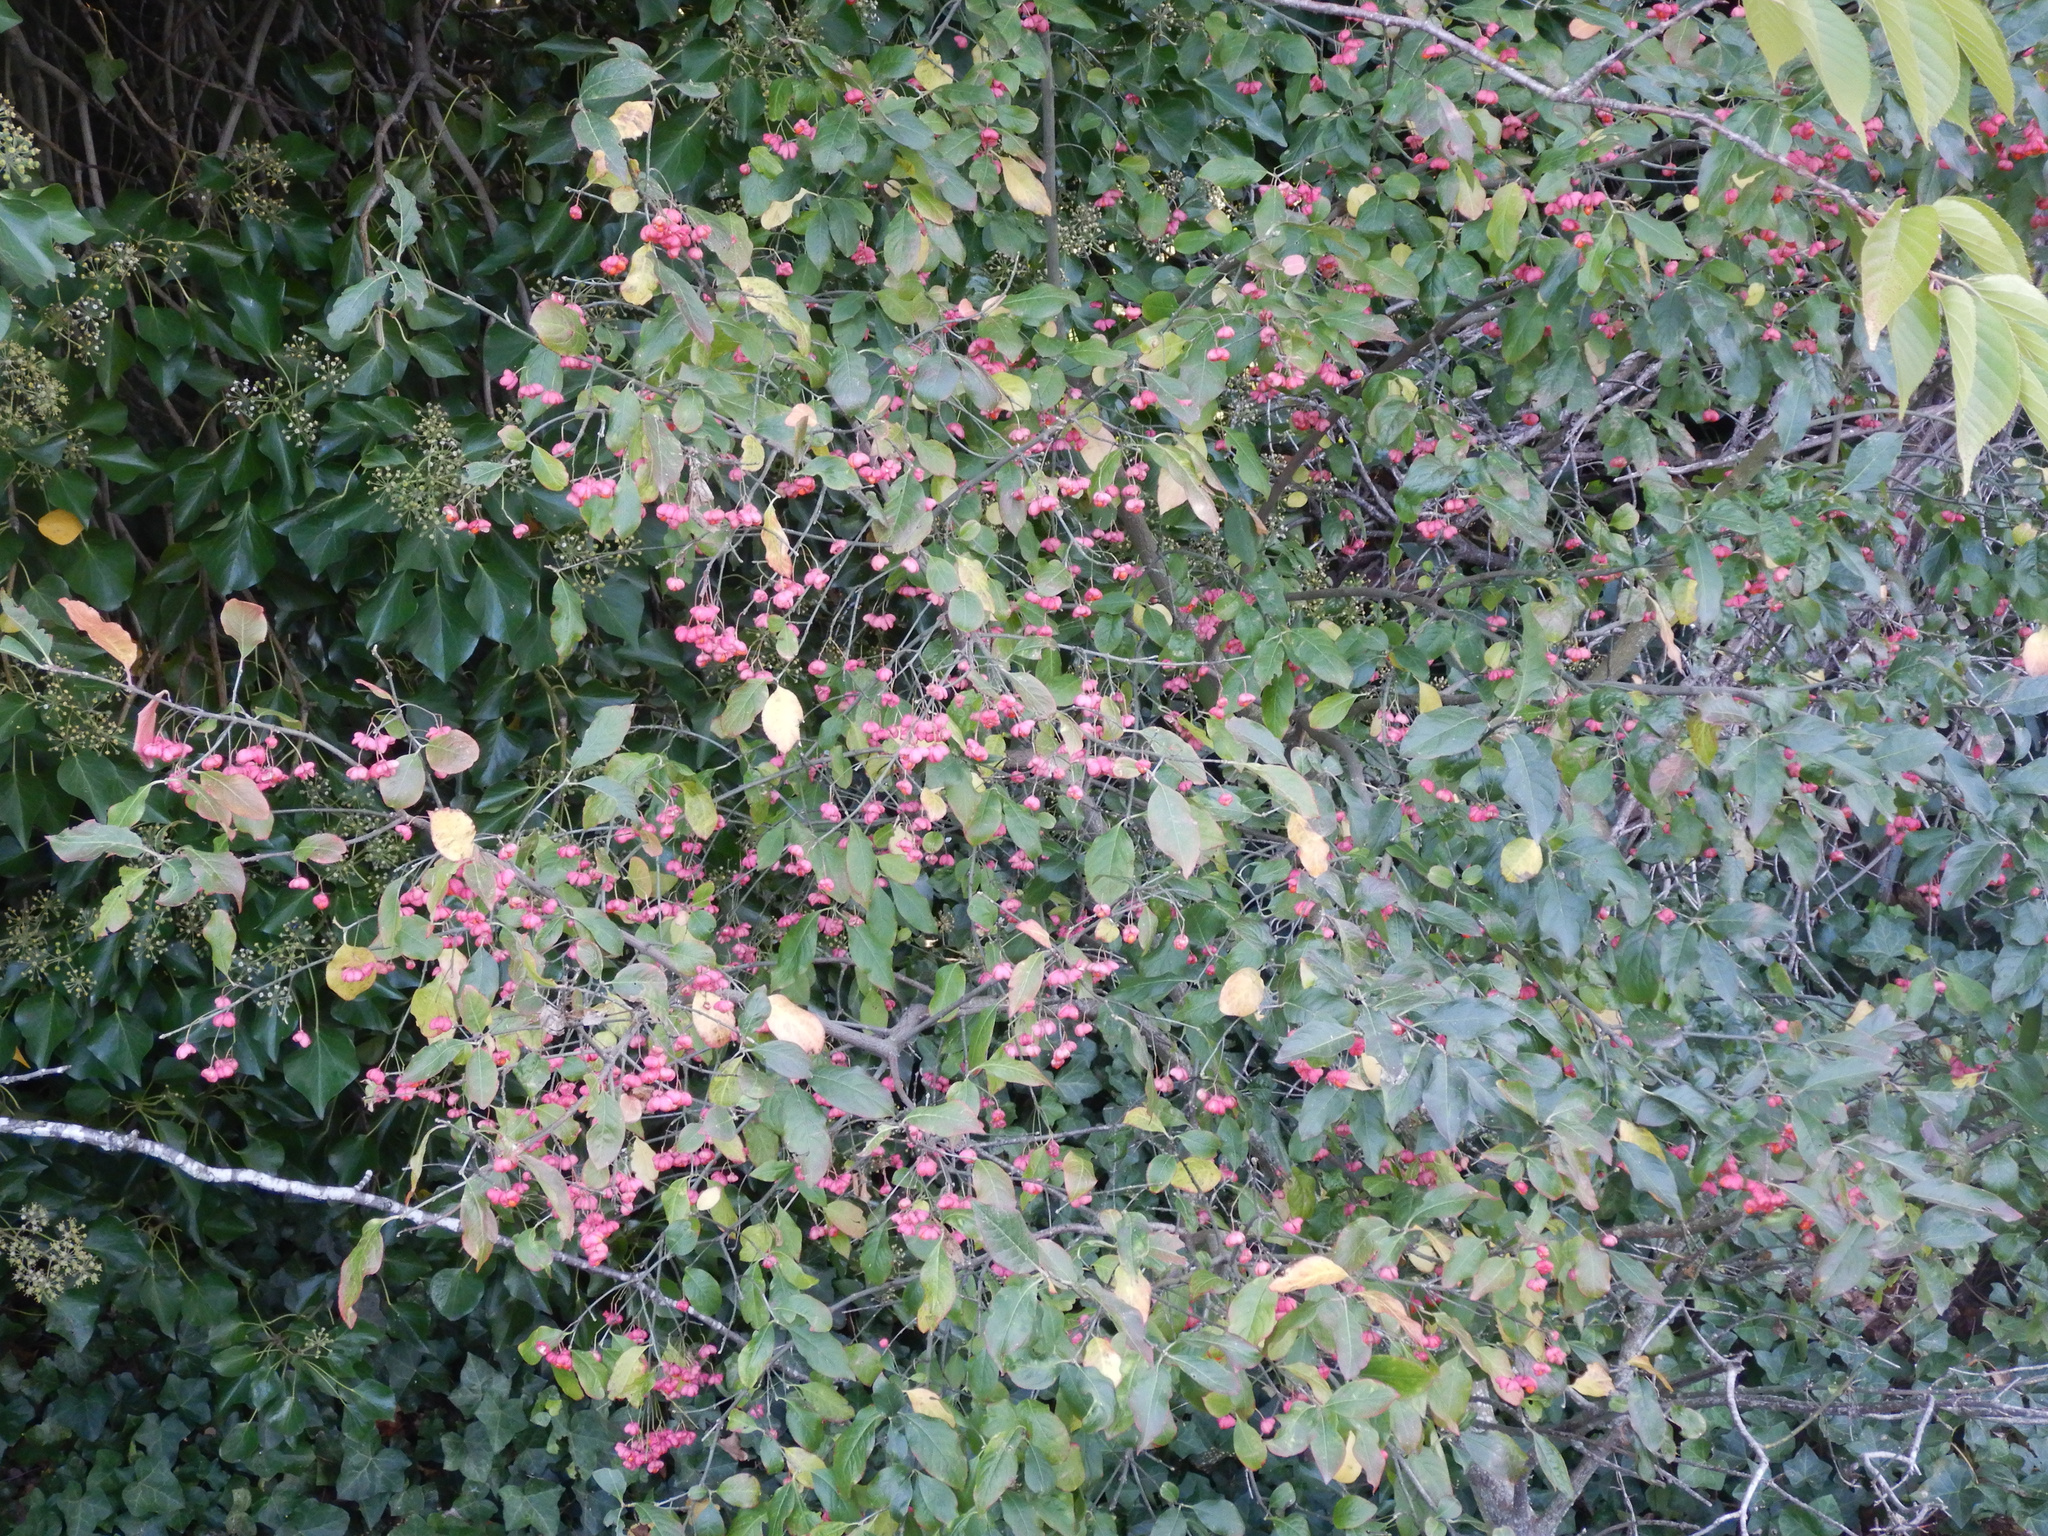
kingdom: Plantae
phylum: Tracheophyta
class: Magnoliopsida
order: Celastrales
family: Celastraceae
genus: Euonymus
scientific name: Euonymus europaeus
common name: Spindle
